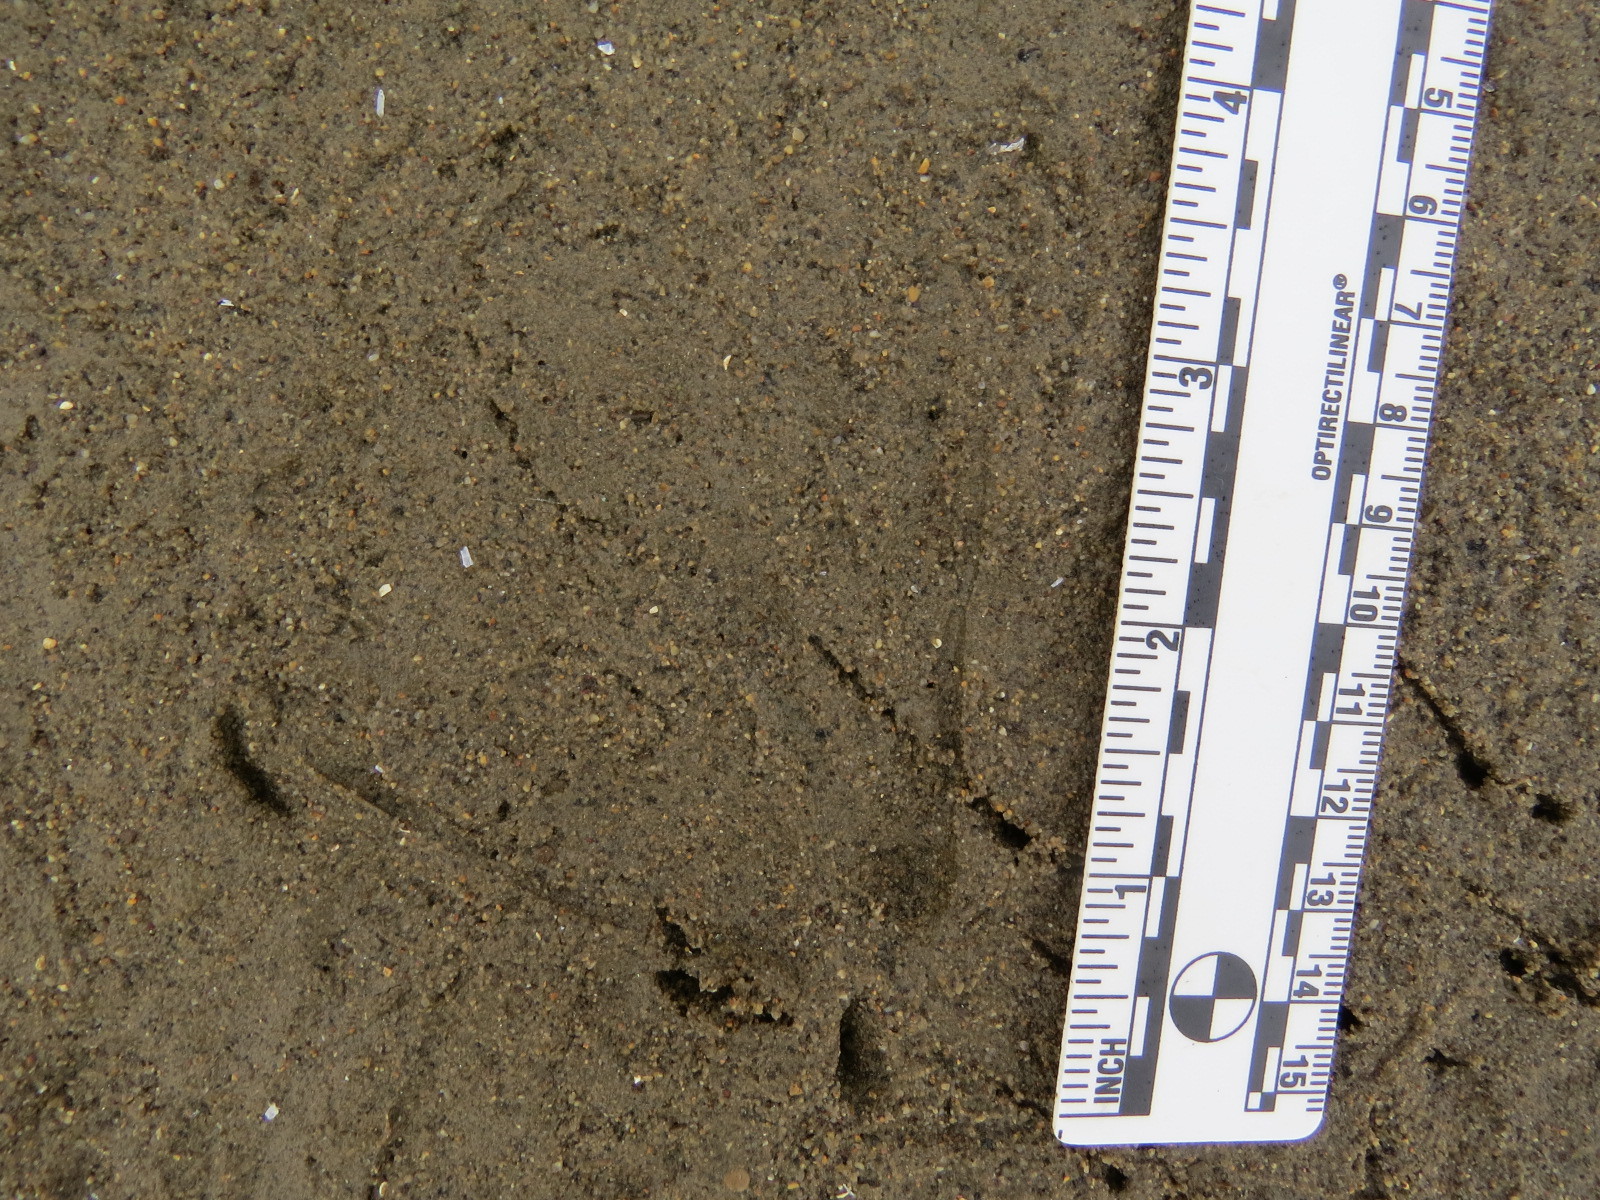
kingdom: Animalia
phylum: Chordata
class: Aves
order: Podicipediformes
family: Podicipedidae
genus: Aechmophorus
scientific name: Aechmophorus occidentalis
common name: Western grebe
